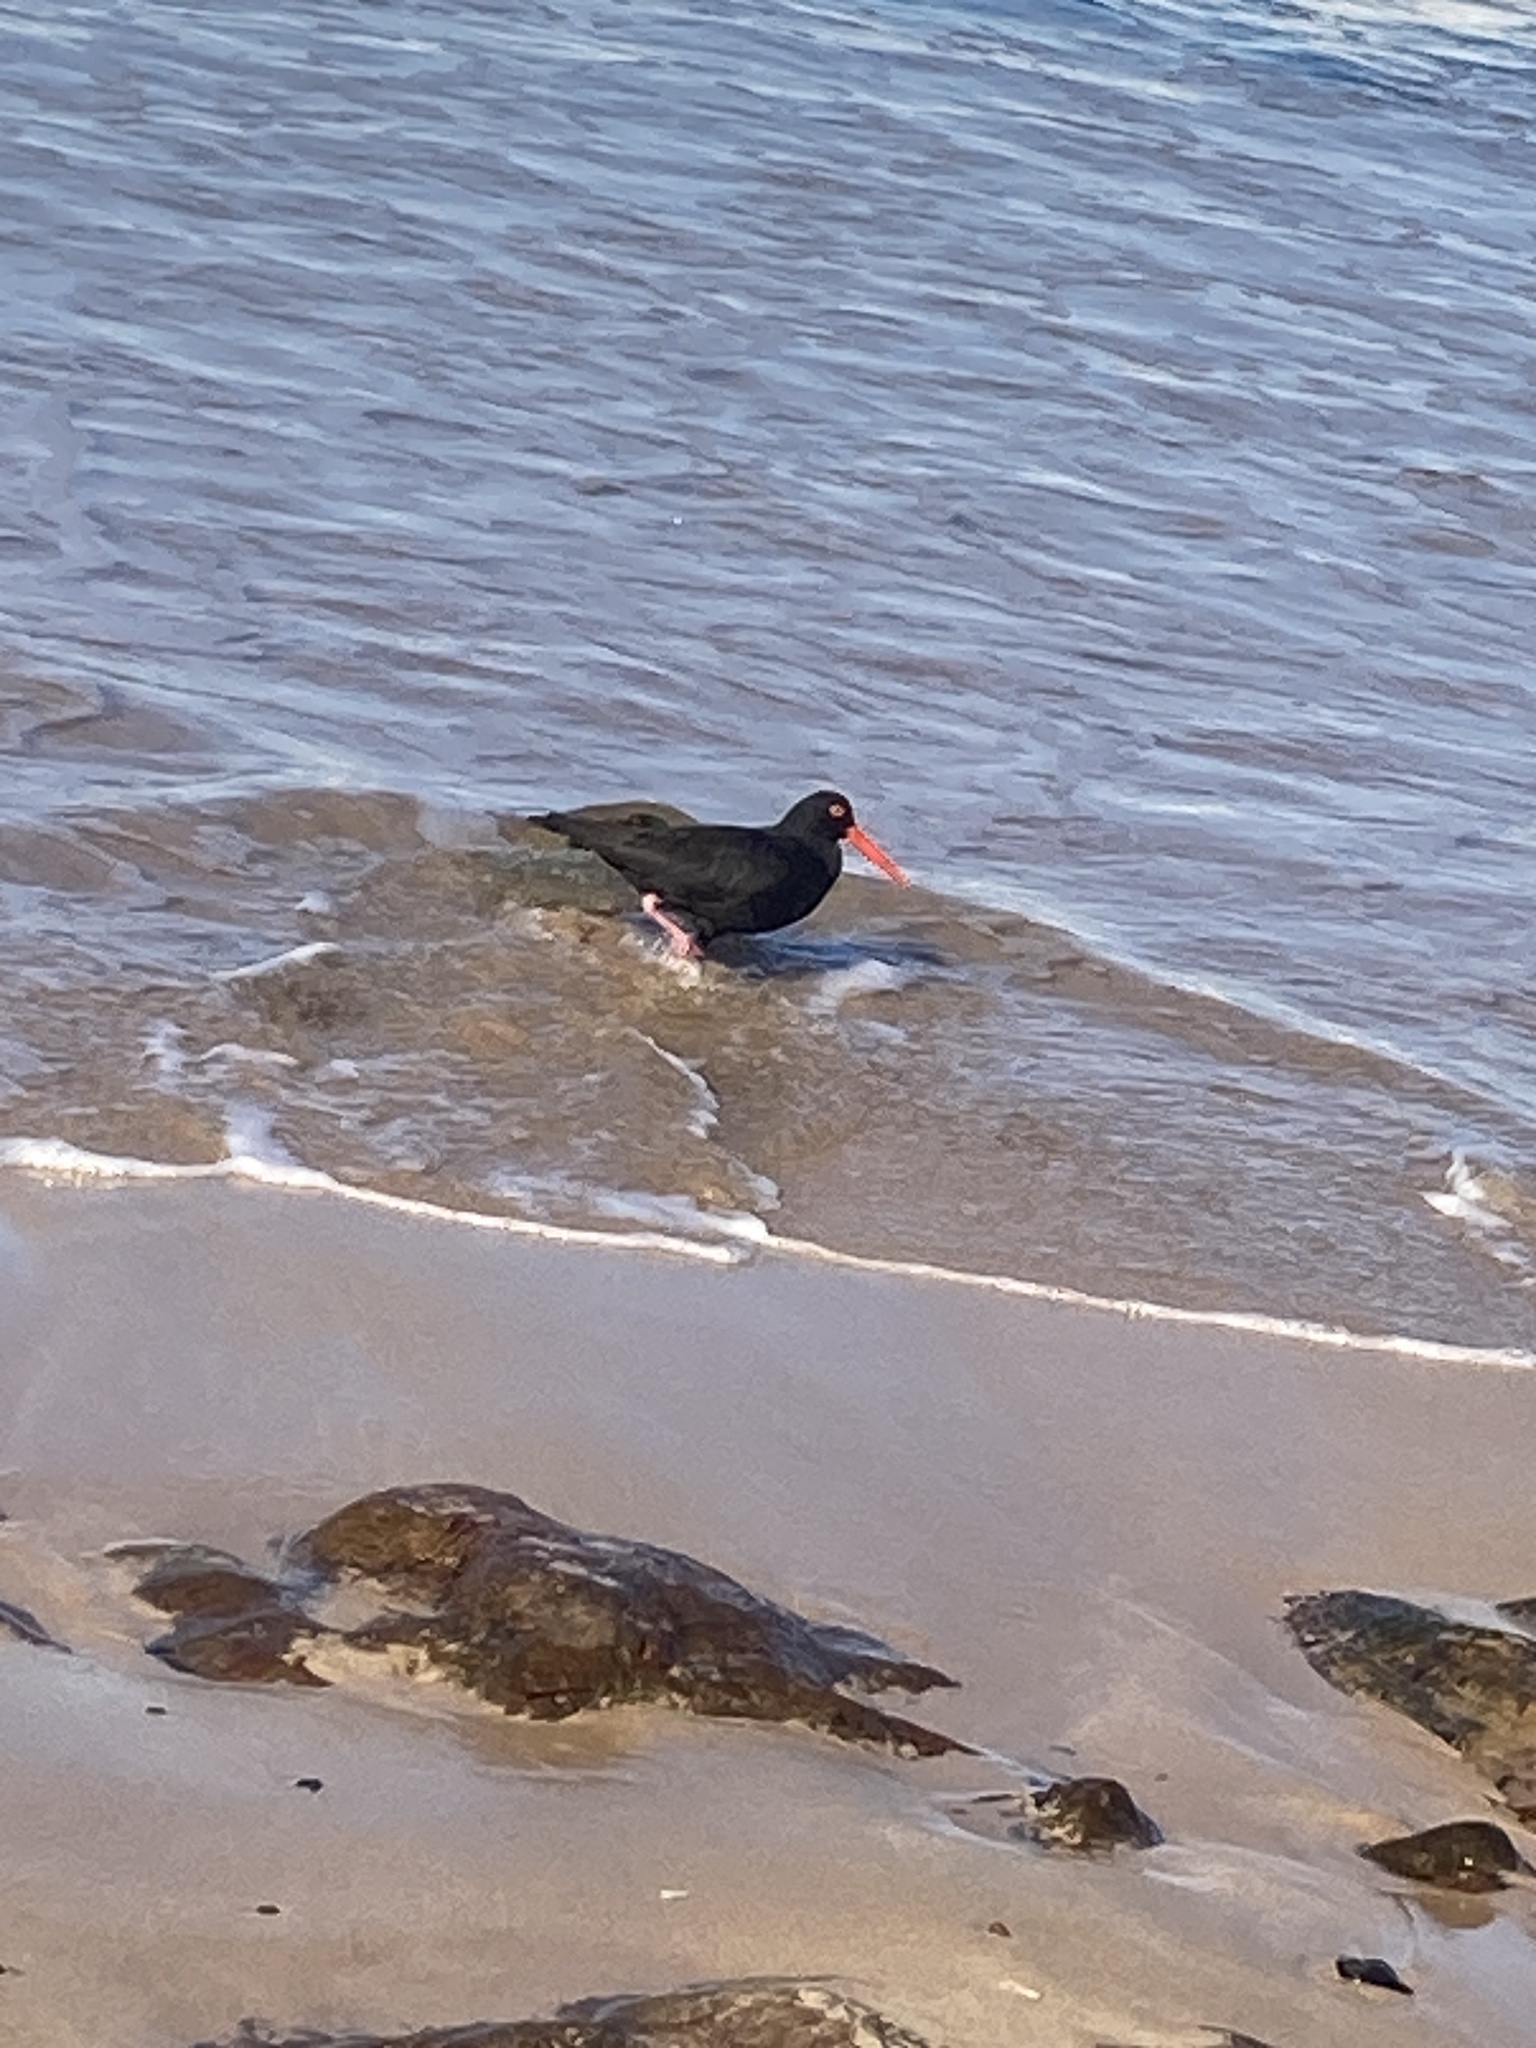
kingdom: Animalia
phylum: Chordata
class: Aves
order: Charadriiformes
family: Haematopodidae
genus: Haematopus
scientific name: Haematopus fuliginosus
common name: Sooty oystercatcher
